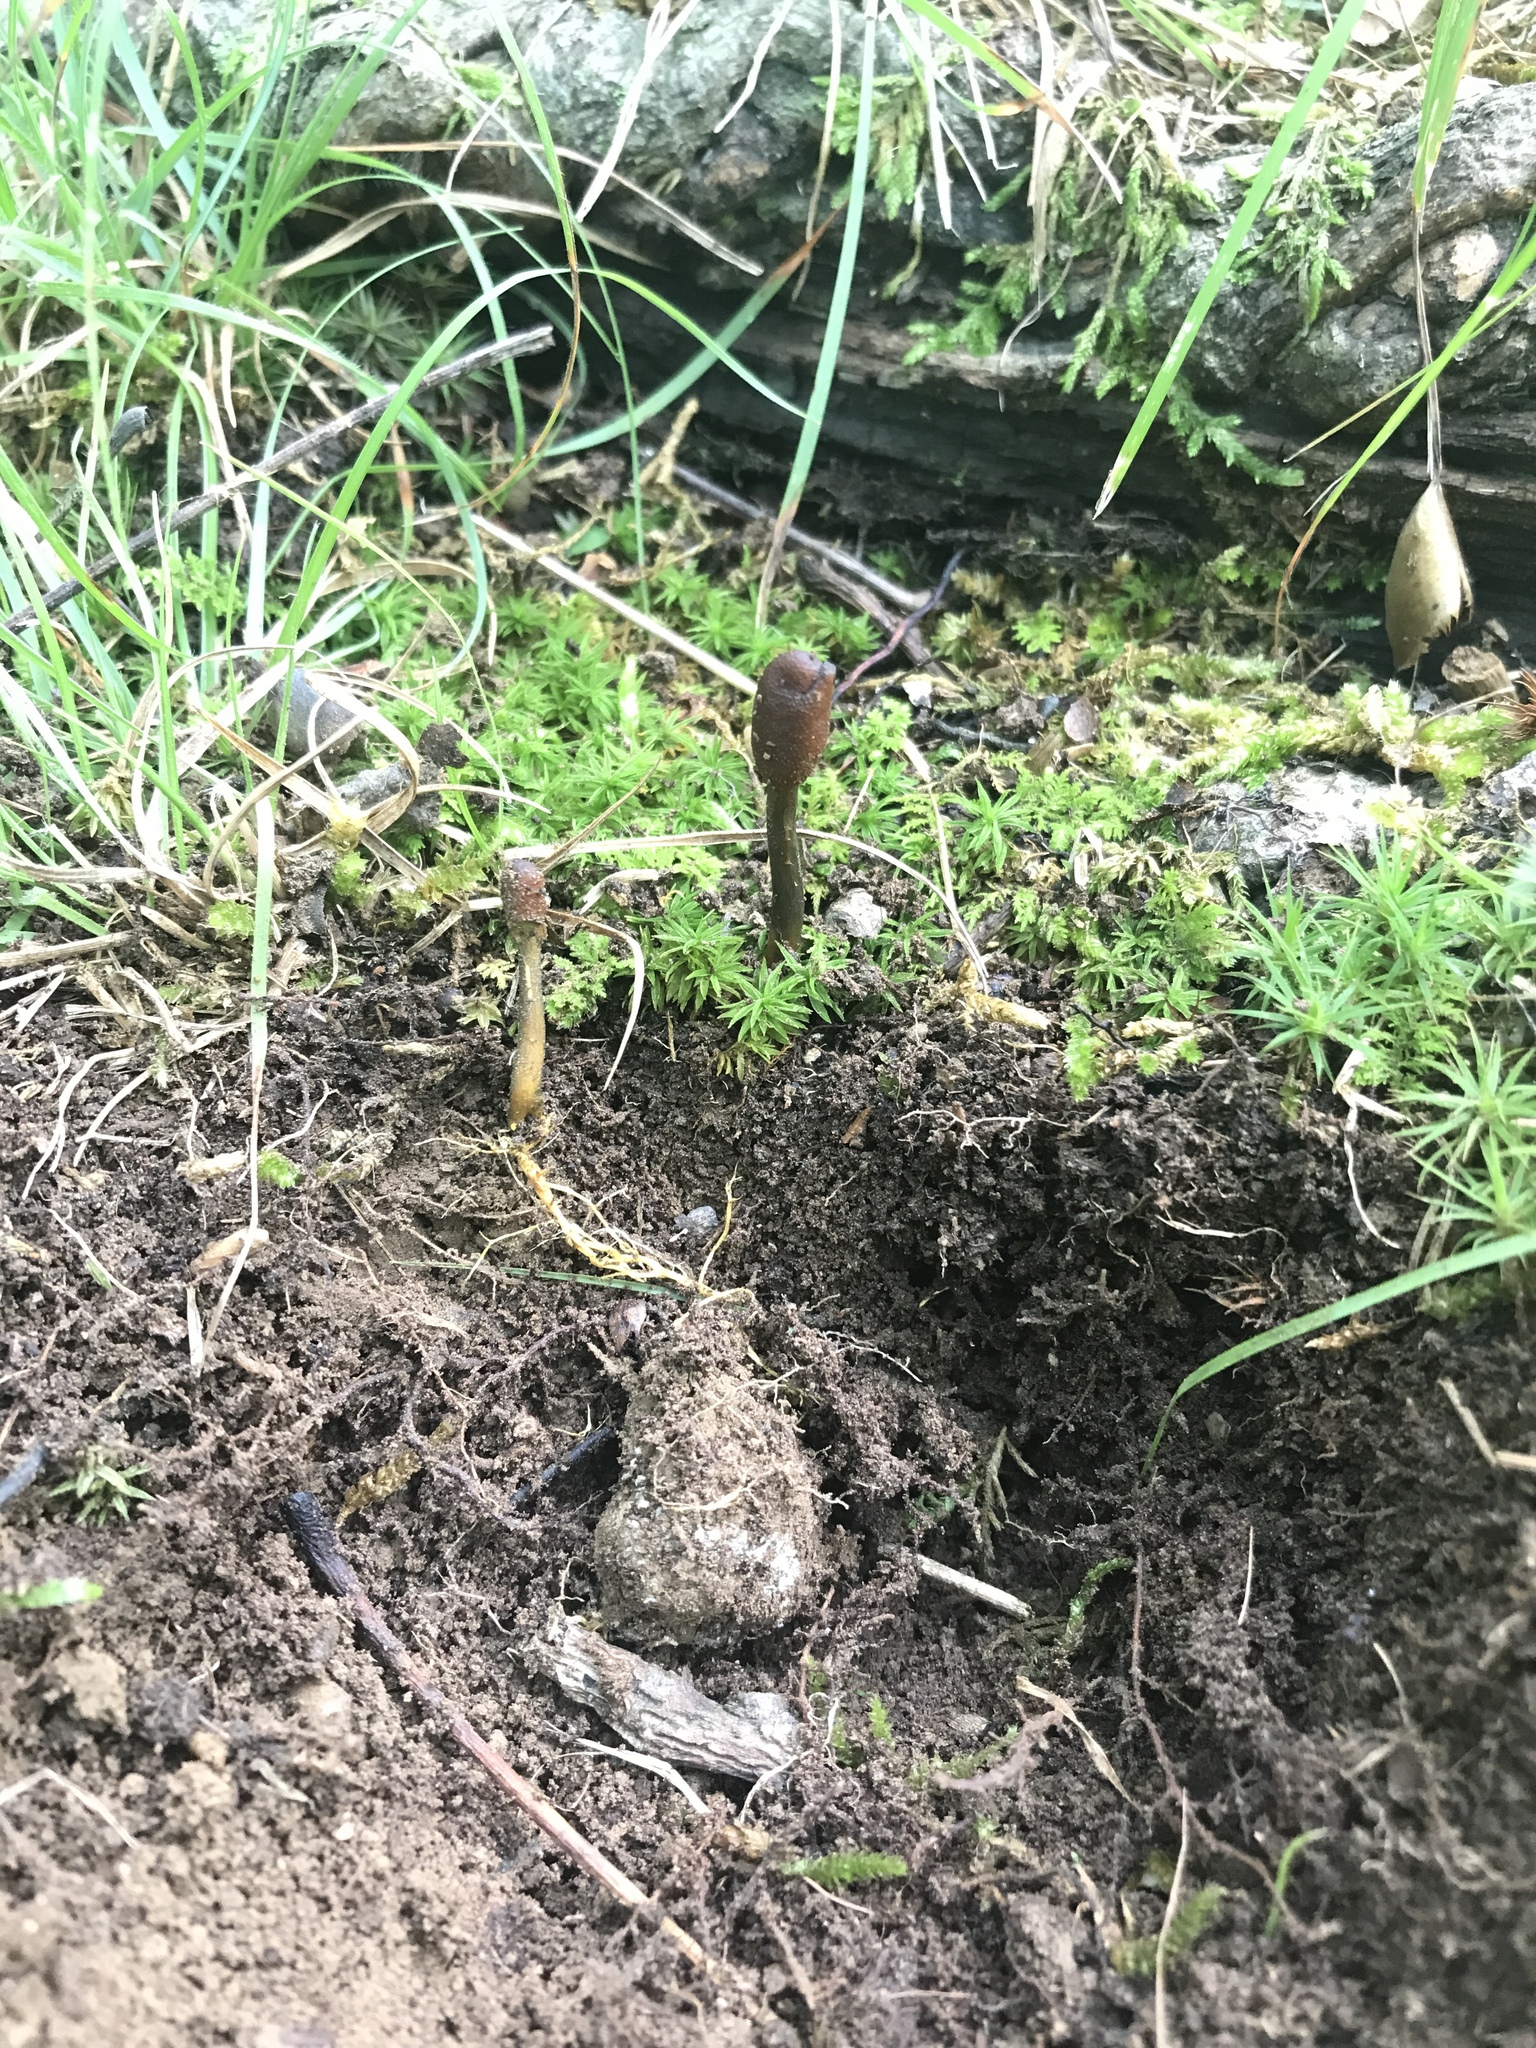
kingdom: Fungi
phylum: Ascomycota
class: Sordariomycetes
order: Hypocreales
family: Ophiocordycipitaceae
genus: Tolypocladium
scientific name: Tolypocladium ophioglossoides
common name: Snaketongue truffleclub
